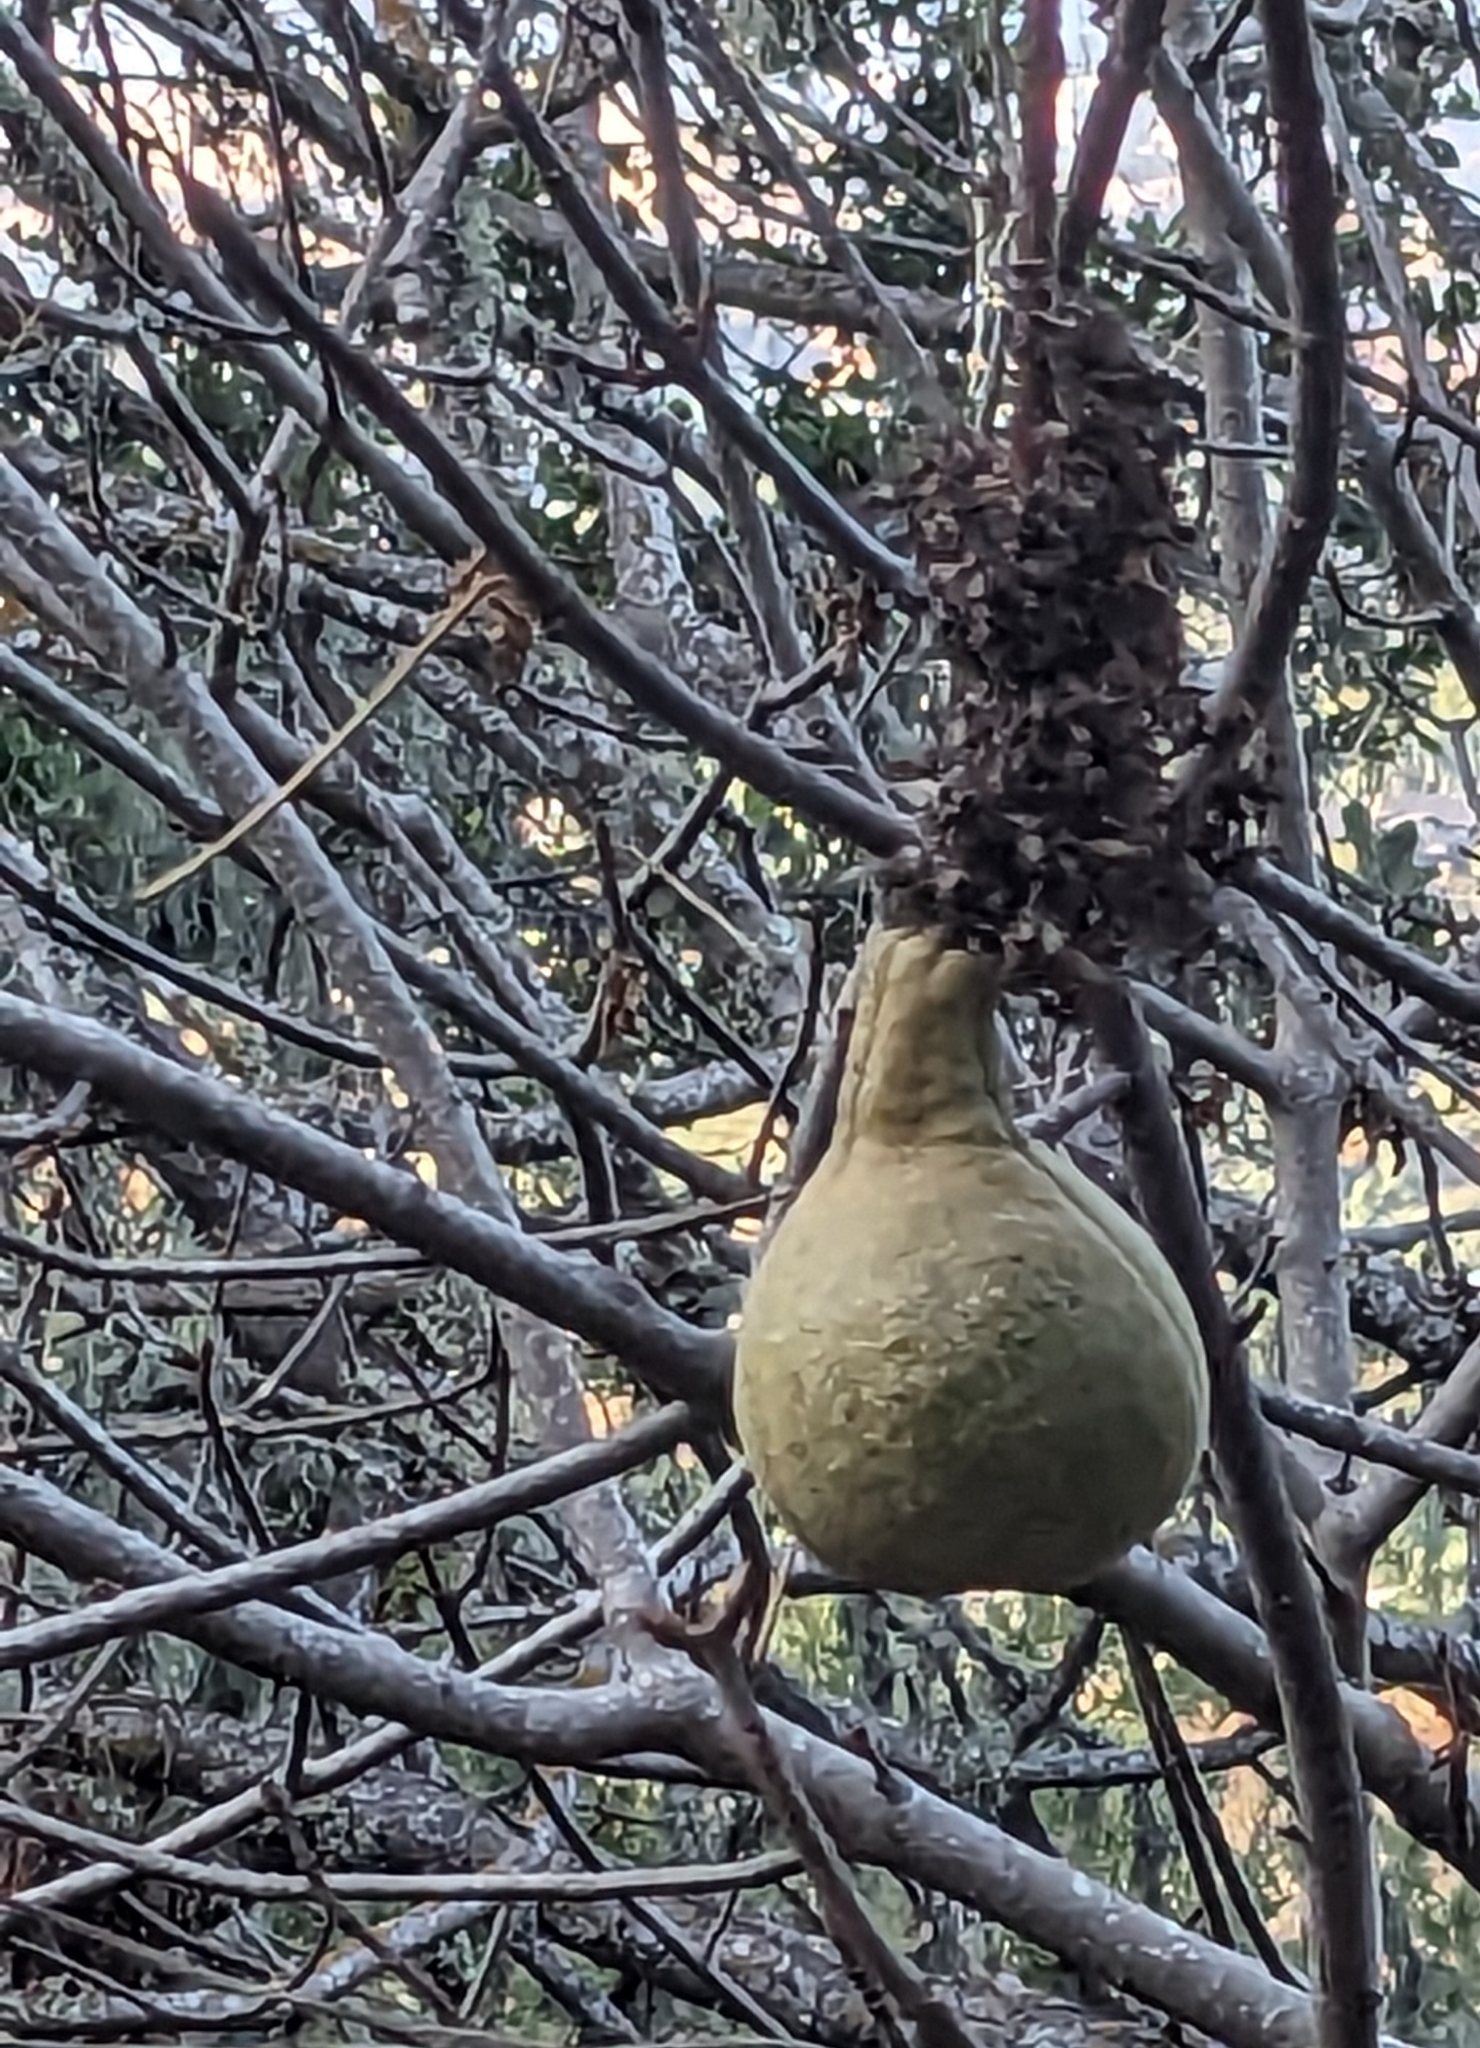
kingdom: Plantae
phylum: Tracheophyta
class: Magnoliopsida
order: Sapindales
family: Sapindaceae
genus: Aesculus
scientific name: Aesculus californica
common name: California buckeye
